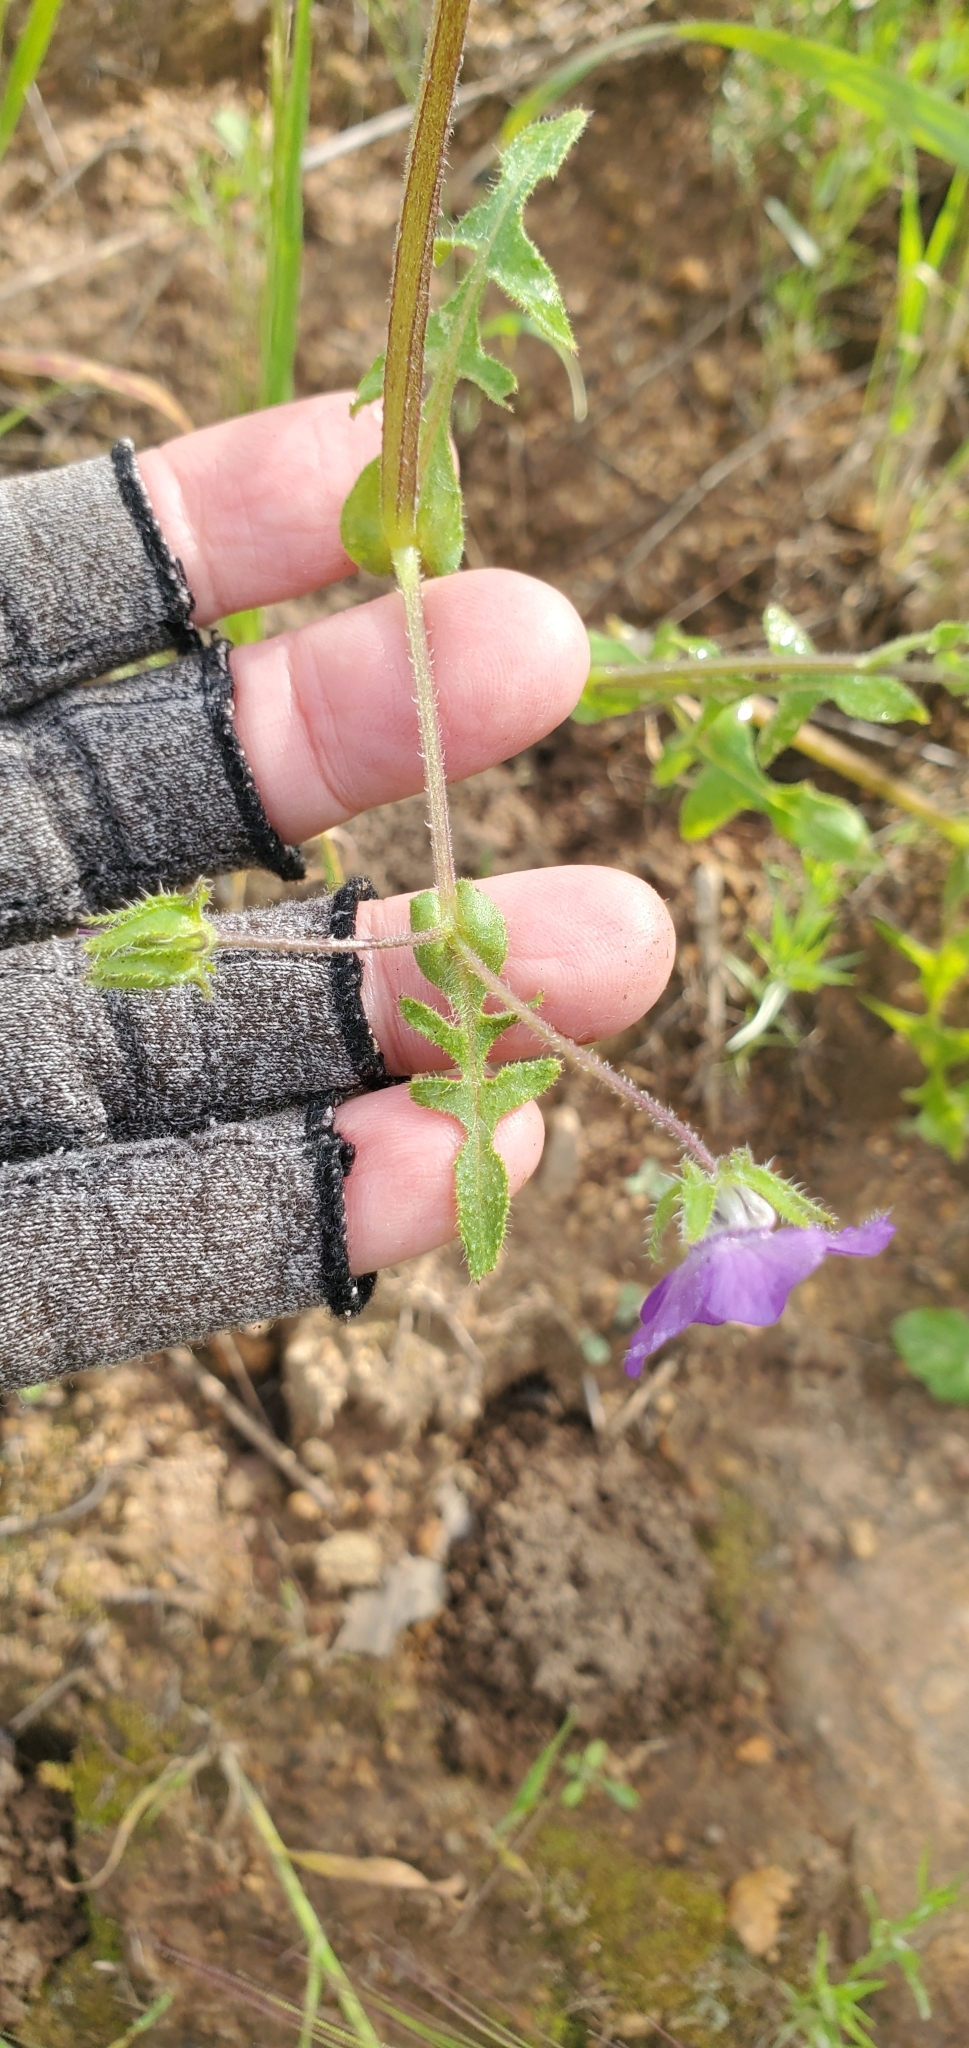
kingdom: Plantae
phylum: Tracheophyta
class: Magnoliopsida
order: Boraginales
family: Hydrophyllaceae
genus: Pholistoma
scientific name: Pholistoma auritum
